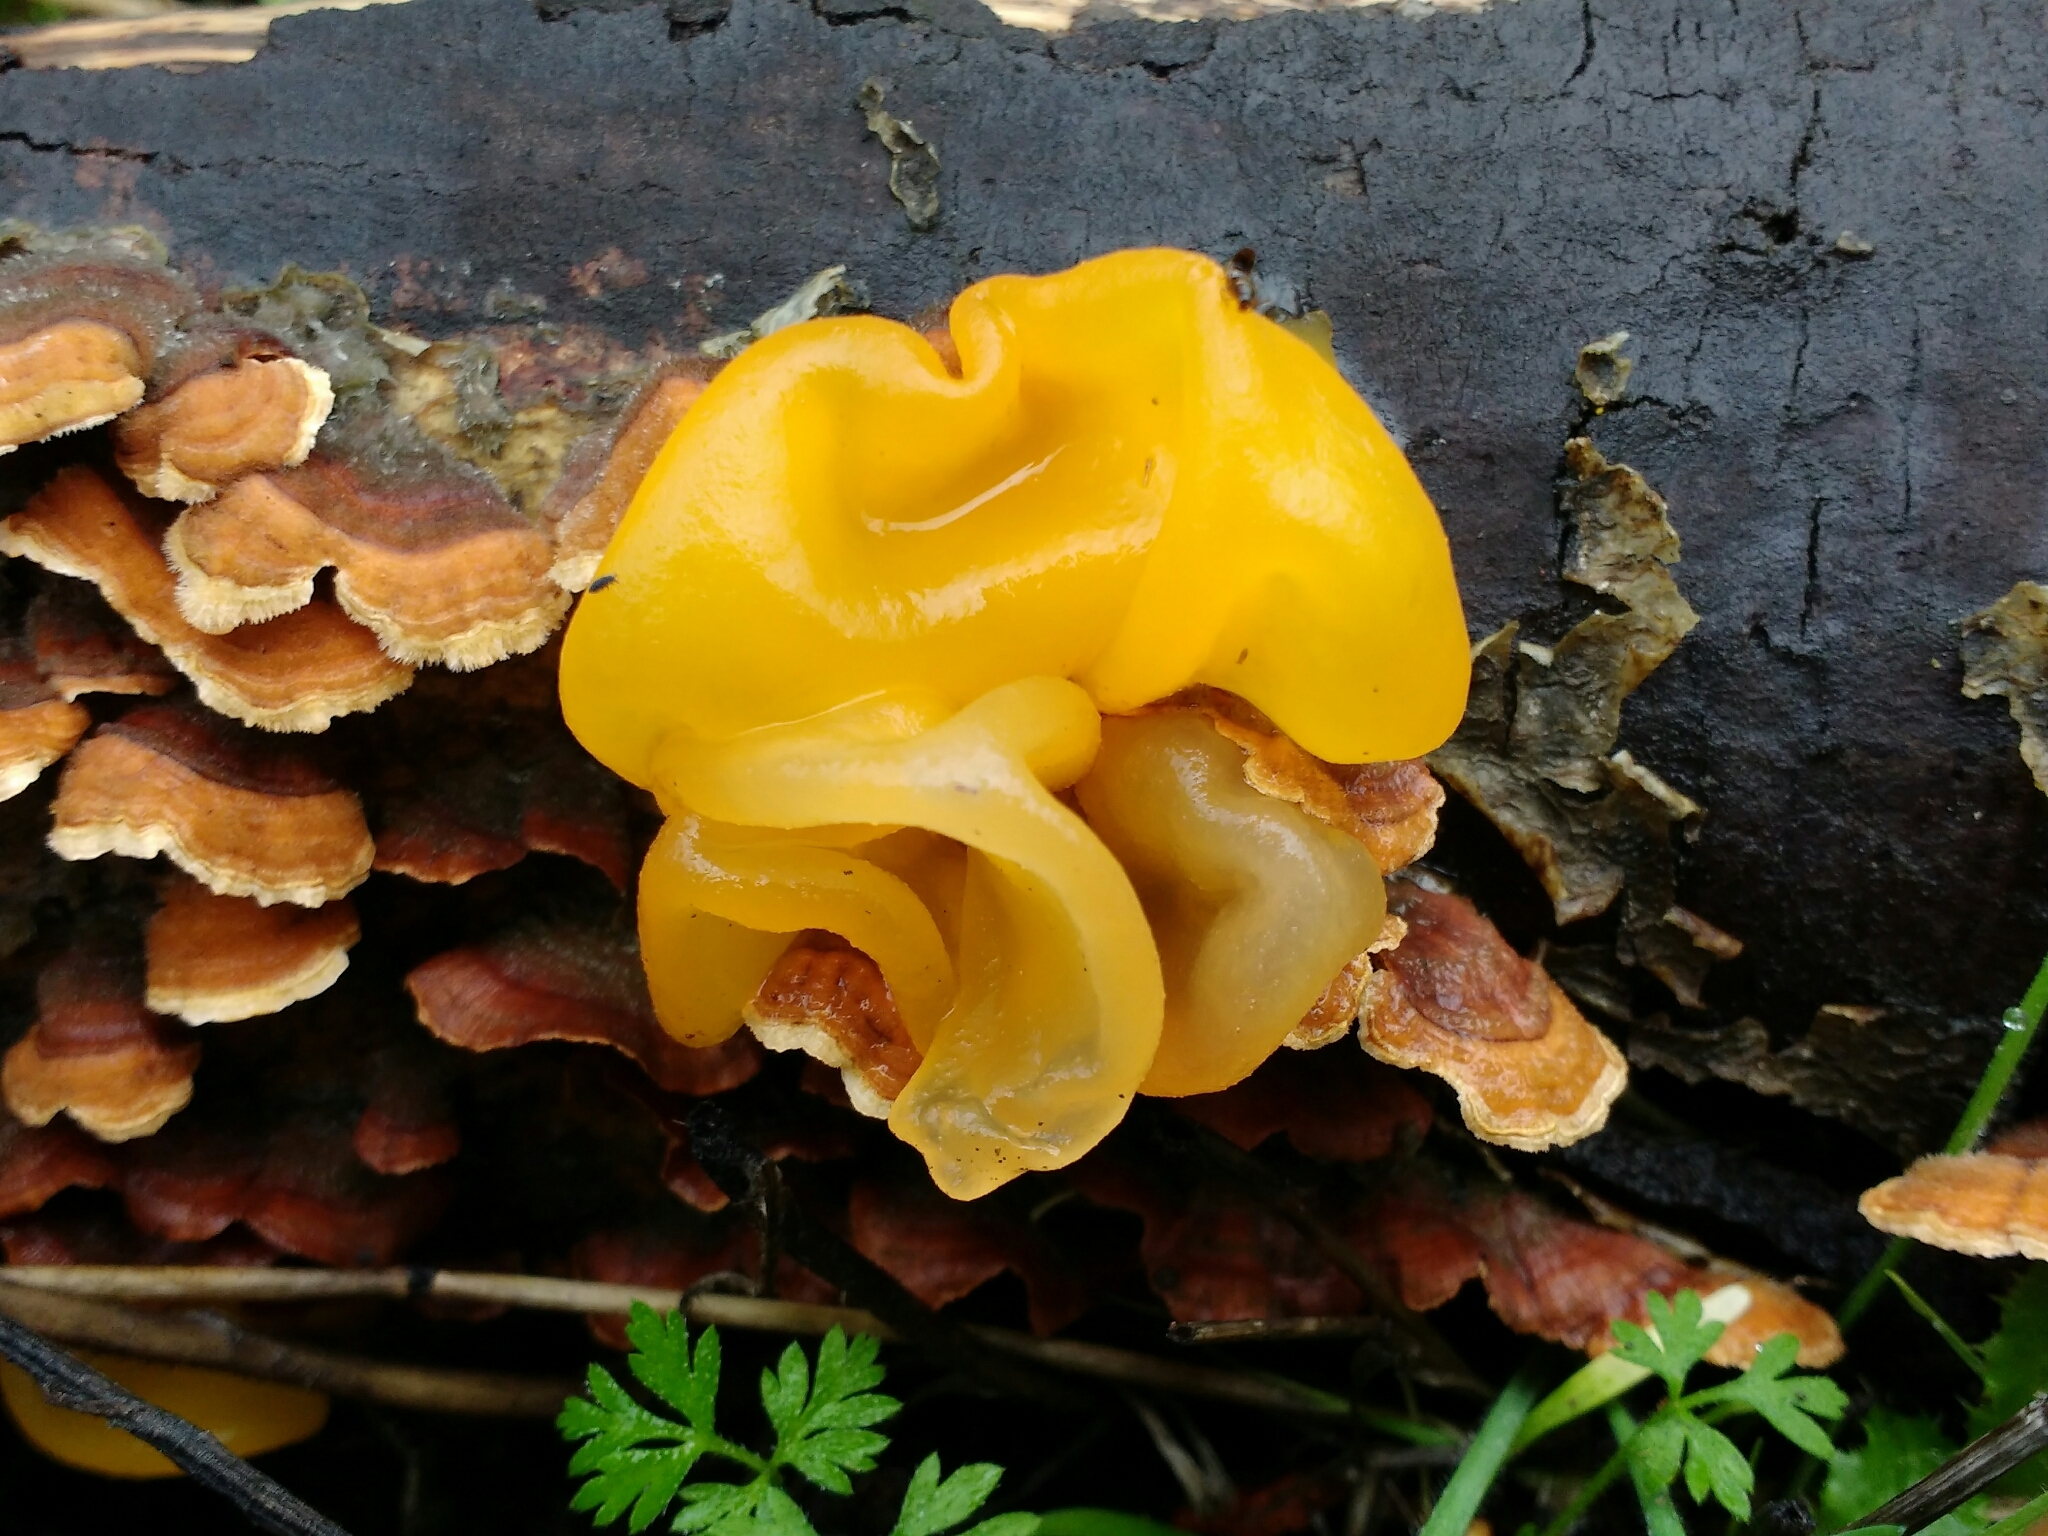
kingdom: Fungi
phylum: Basidiomycota
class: Tremellomycetes
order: Tremellales
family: Naemateliaceae
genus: Naematelia
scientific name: Naematelia aurantia
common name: Golden ear
